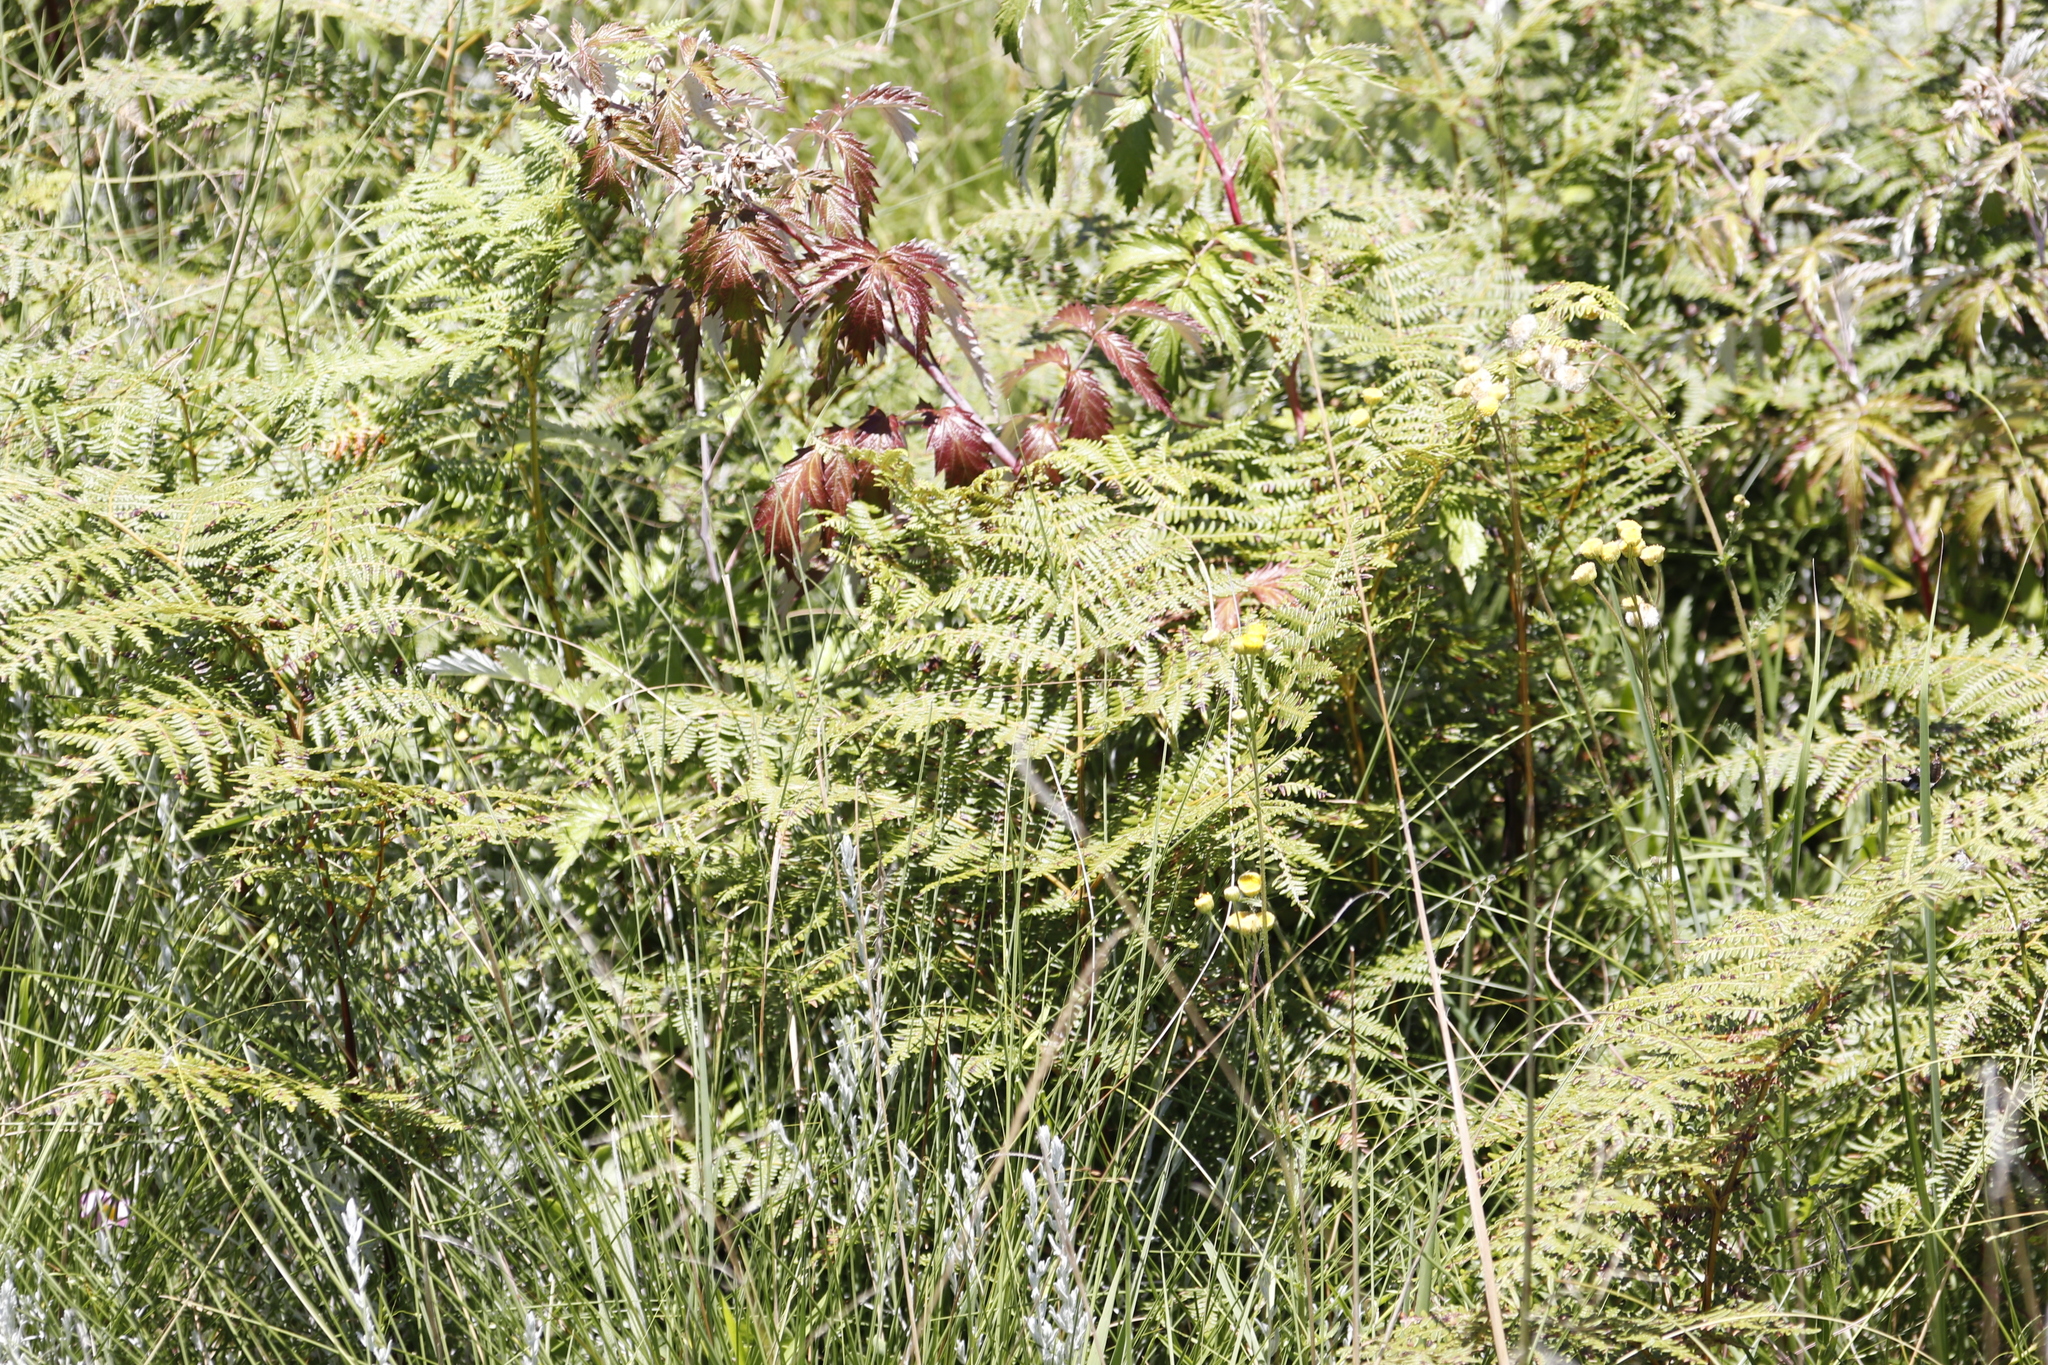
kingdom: Plantae
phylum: Tracheophyta
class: Polypodiopsida
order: Polypodiales
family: Dennstaedtiaceae
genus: Pteridium
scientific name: Pteridium aquilinum
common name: Bracken
